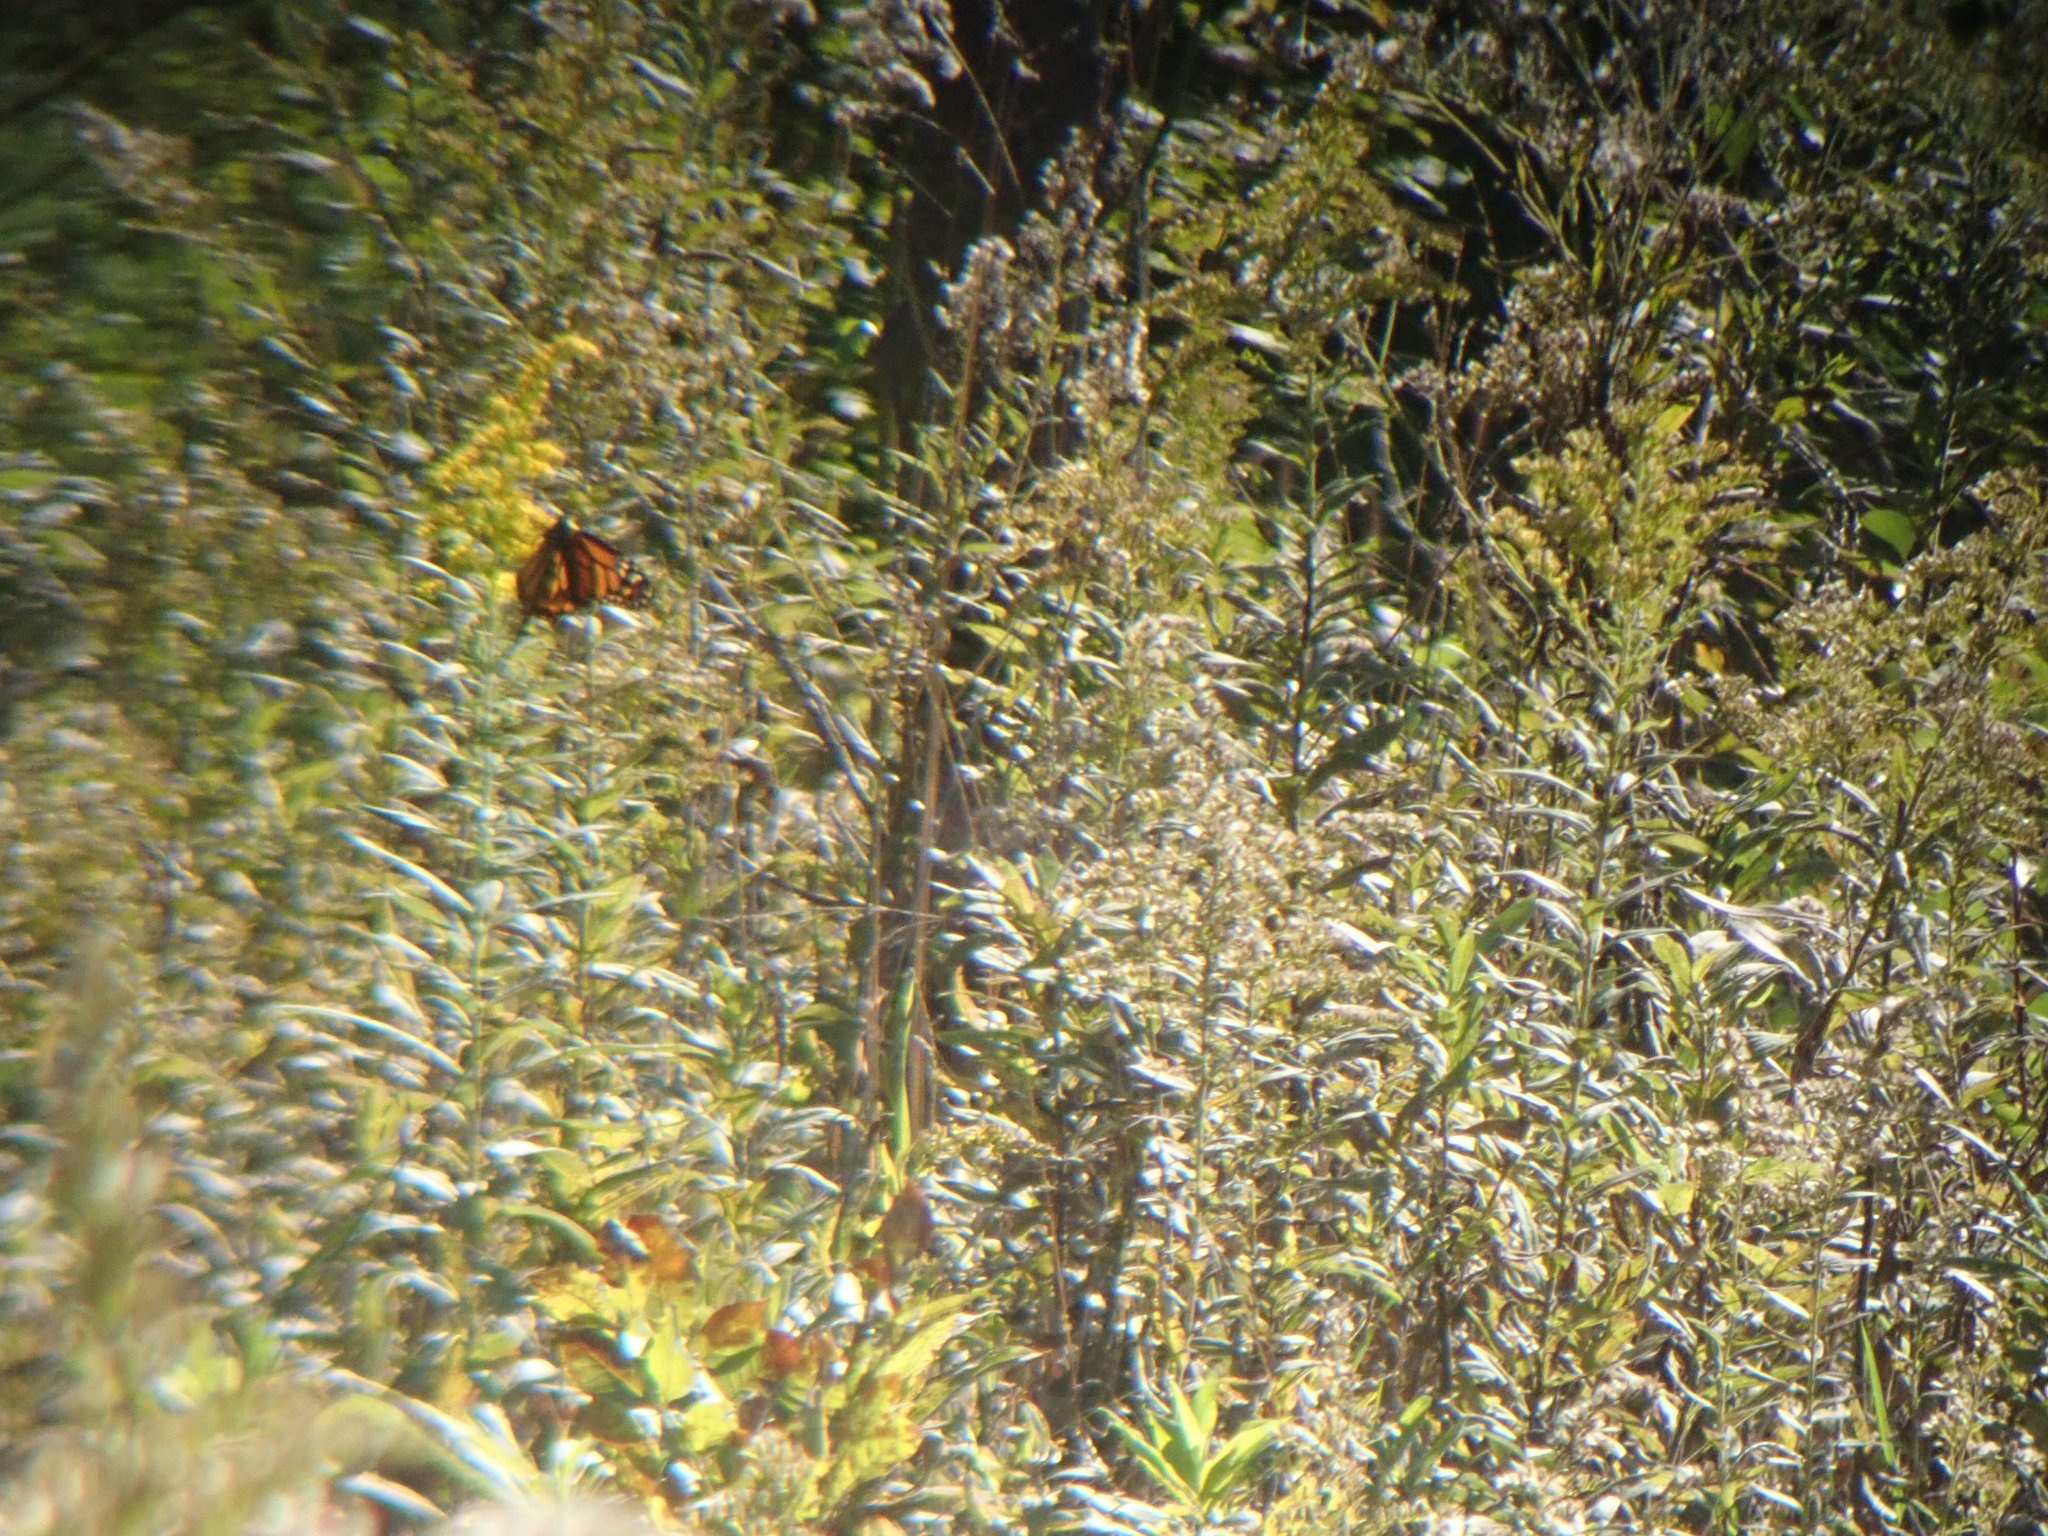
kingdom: Animalia
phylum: Arthropoda
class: Insecta
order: Lepidoptera
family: Nymphalidae
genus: Danaus
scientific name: Danaus plexippus
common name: Monarch
